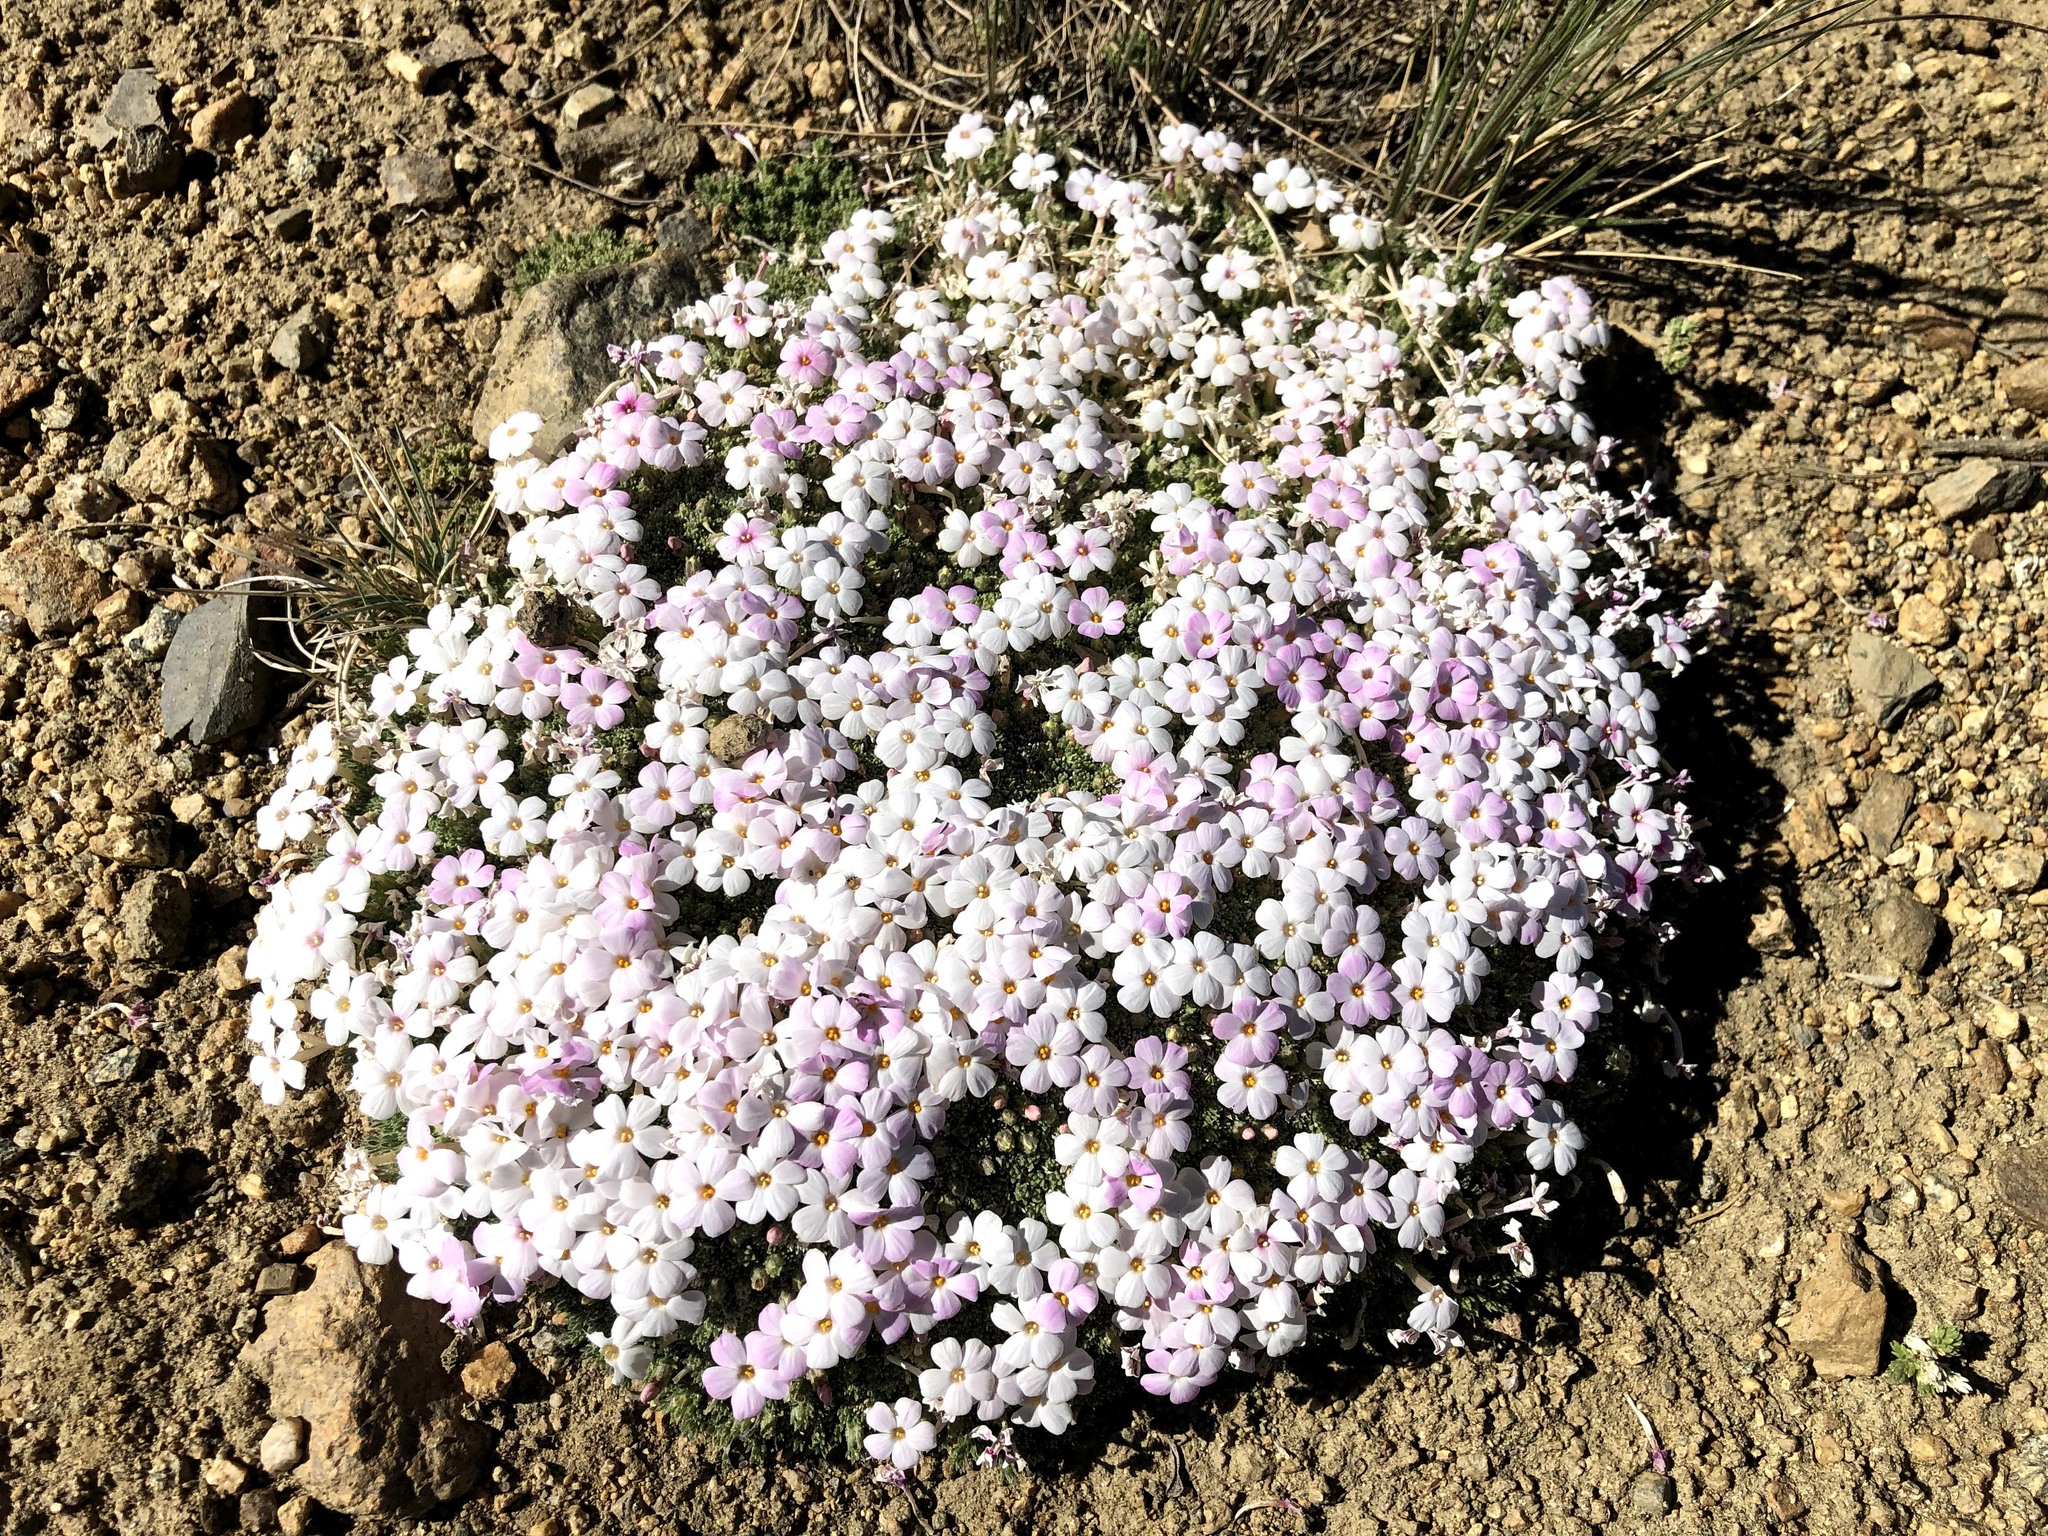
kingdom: Plantae
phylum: Tracheophyta
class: Magnoliopsida
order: Ericales
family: Polemoniaceae
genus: Phlox
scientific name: Phlox condensata
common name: Compact phlox
